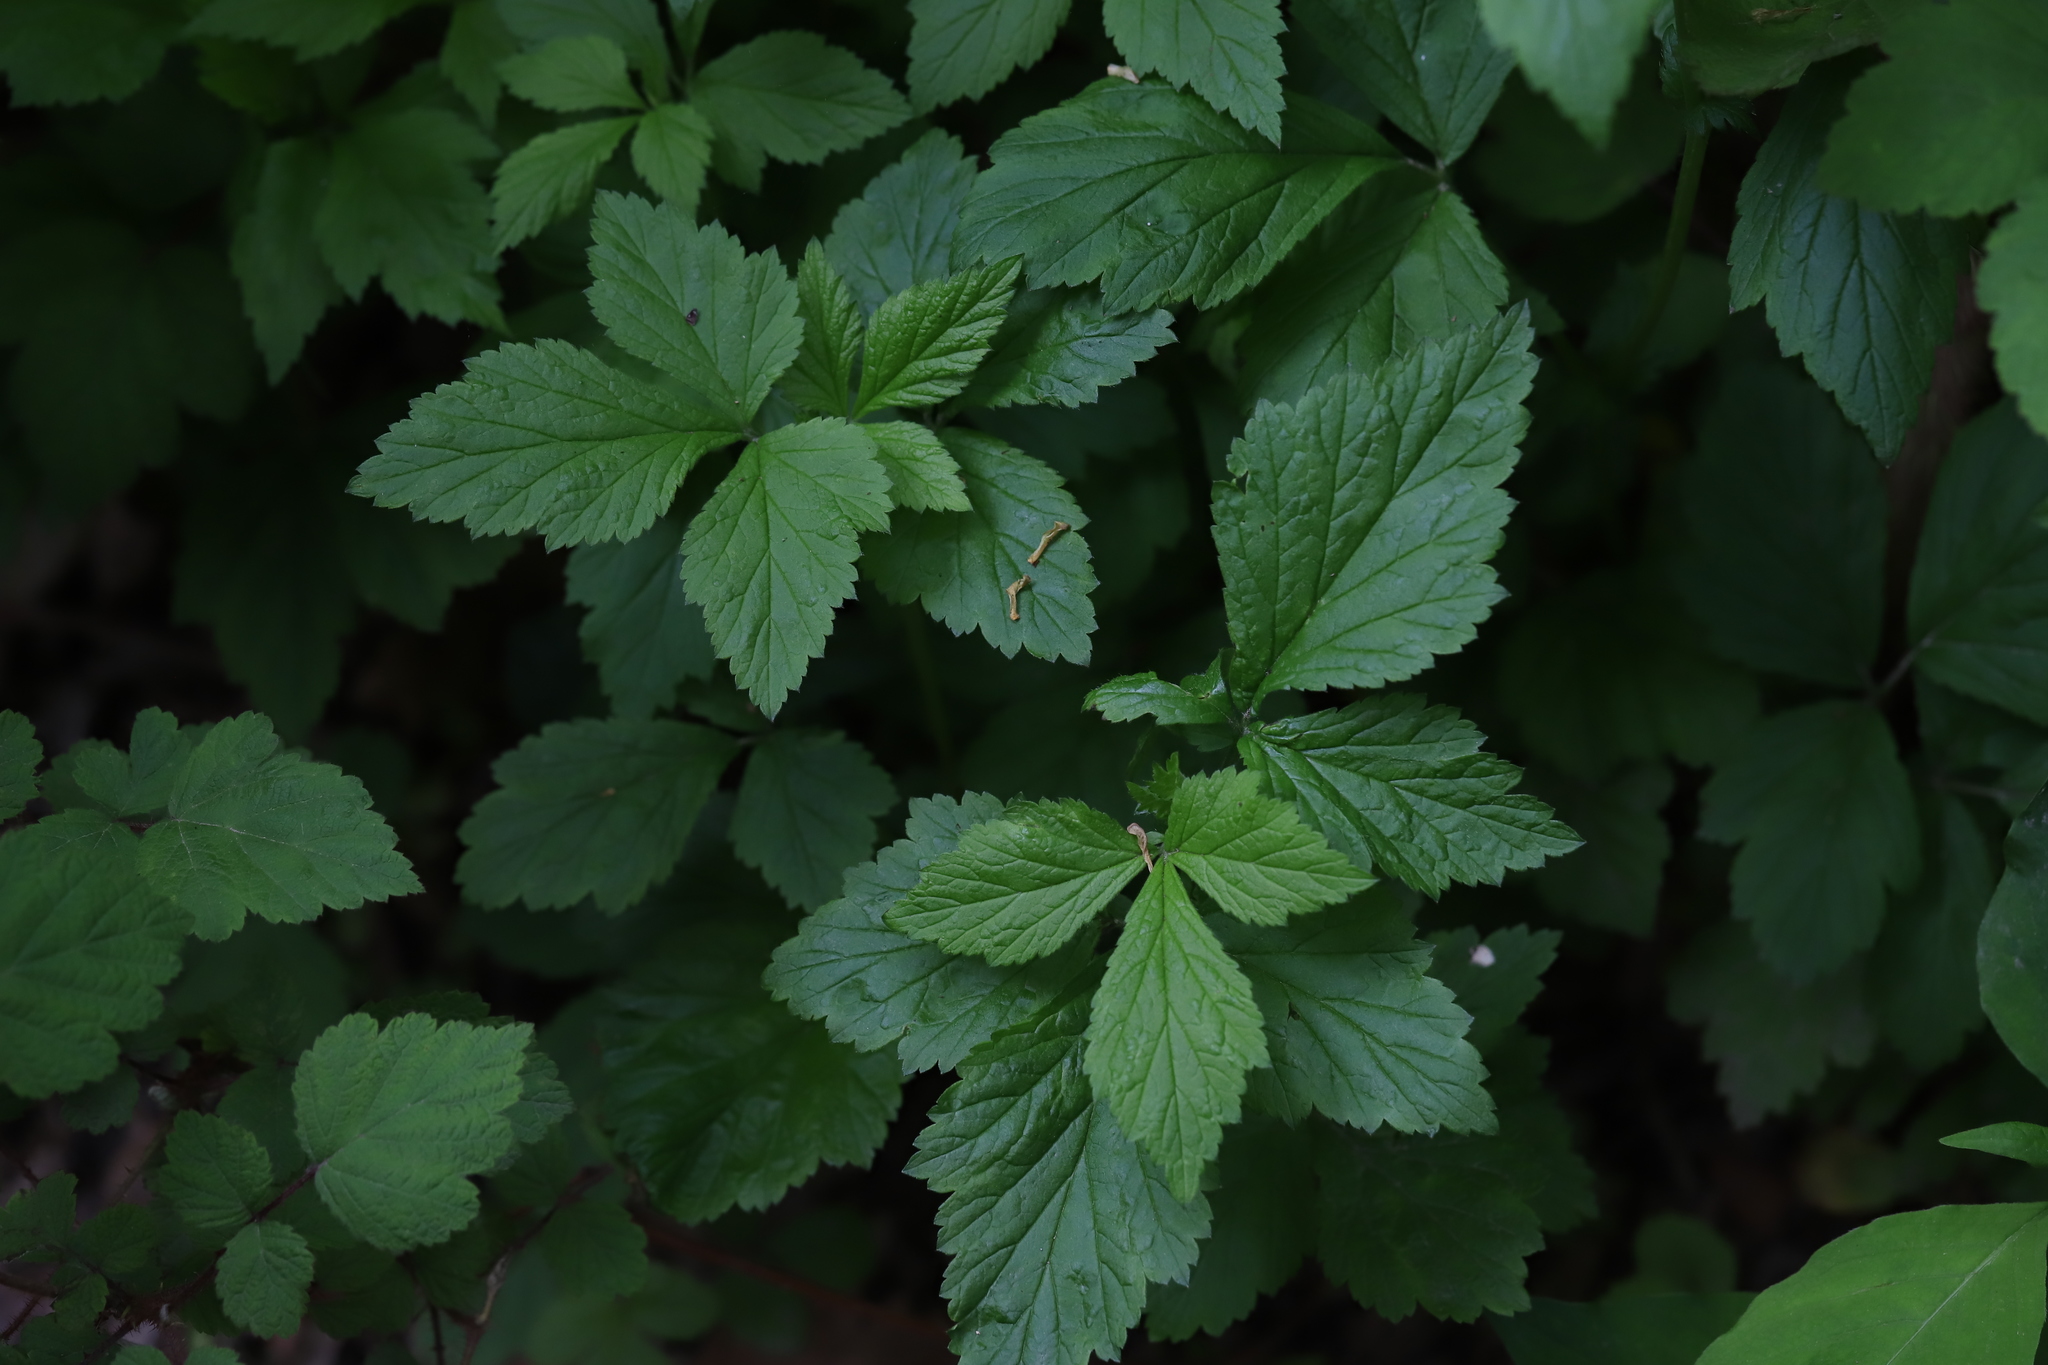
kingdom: Plantae
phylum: Tracheophyta
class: Magnoliopsida
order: Rosales
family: Rosaceae
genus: Geum
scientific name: Geum canadense
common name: White avens
